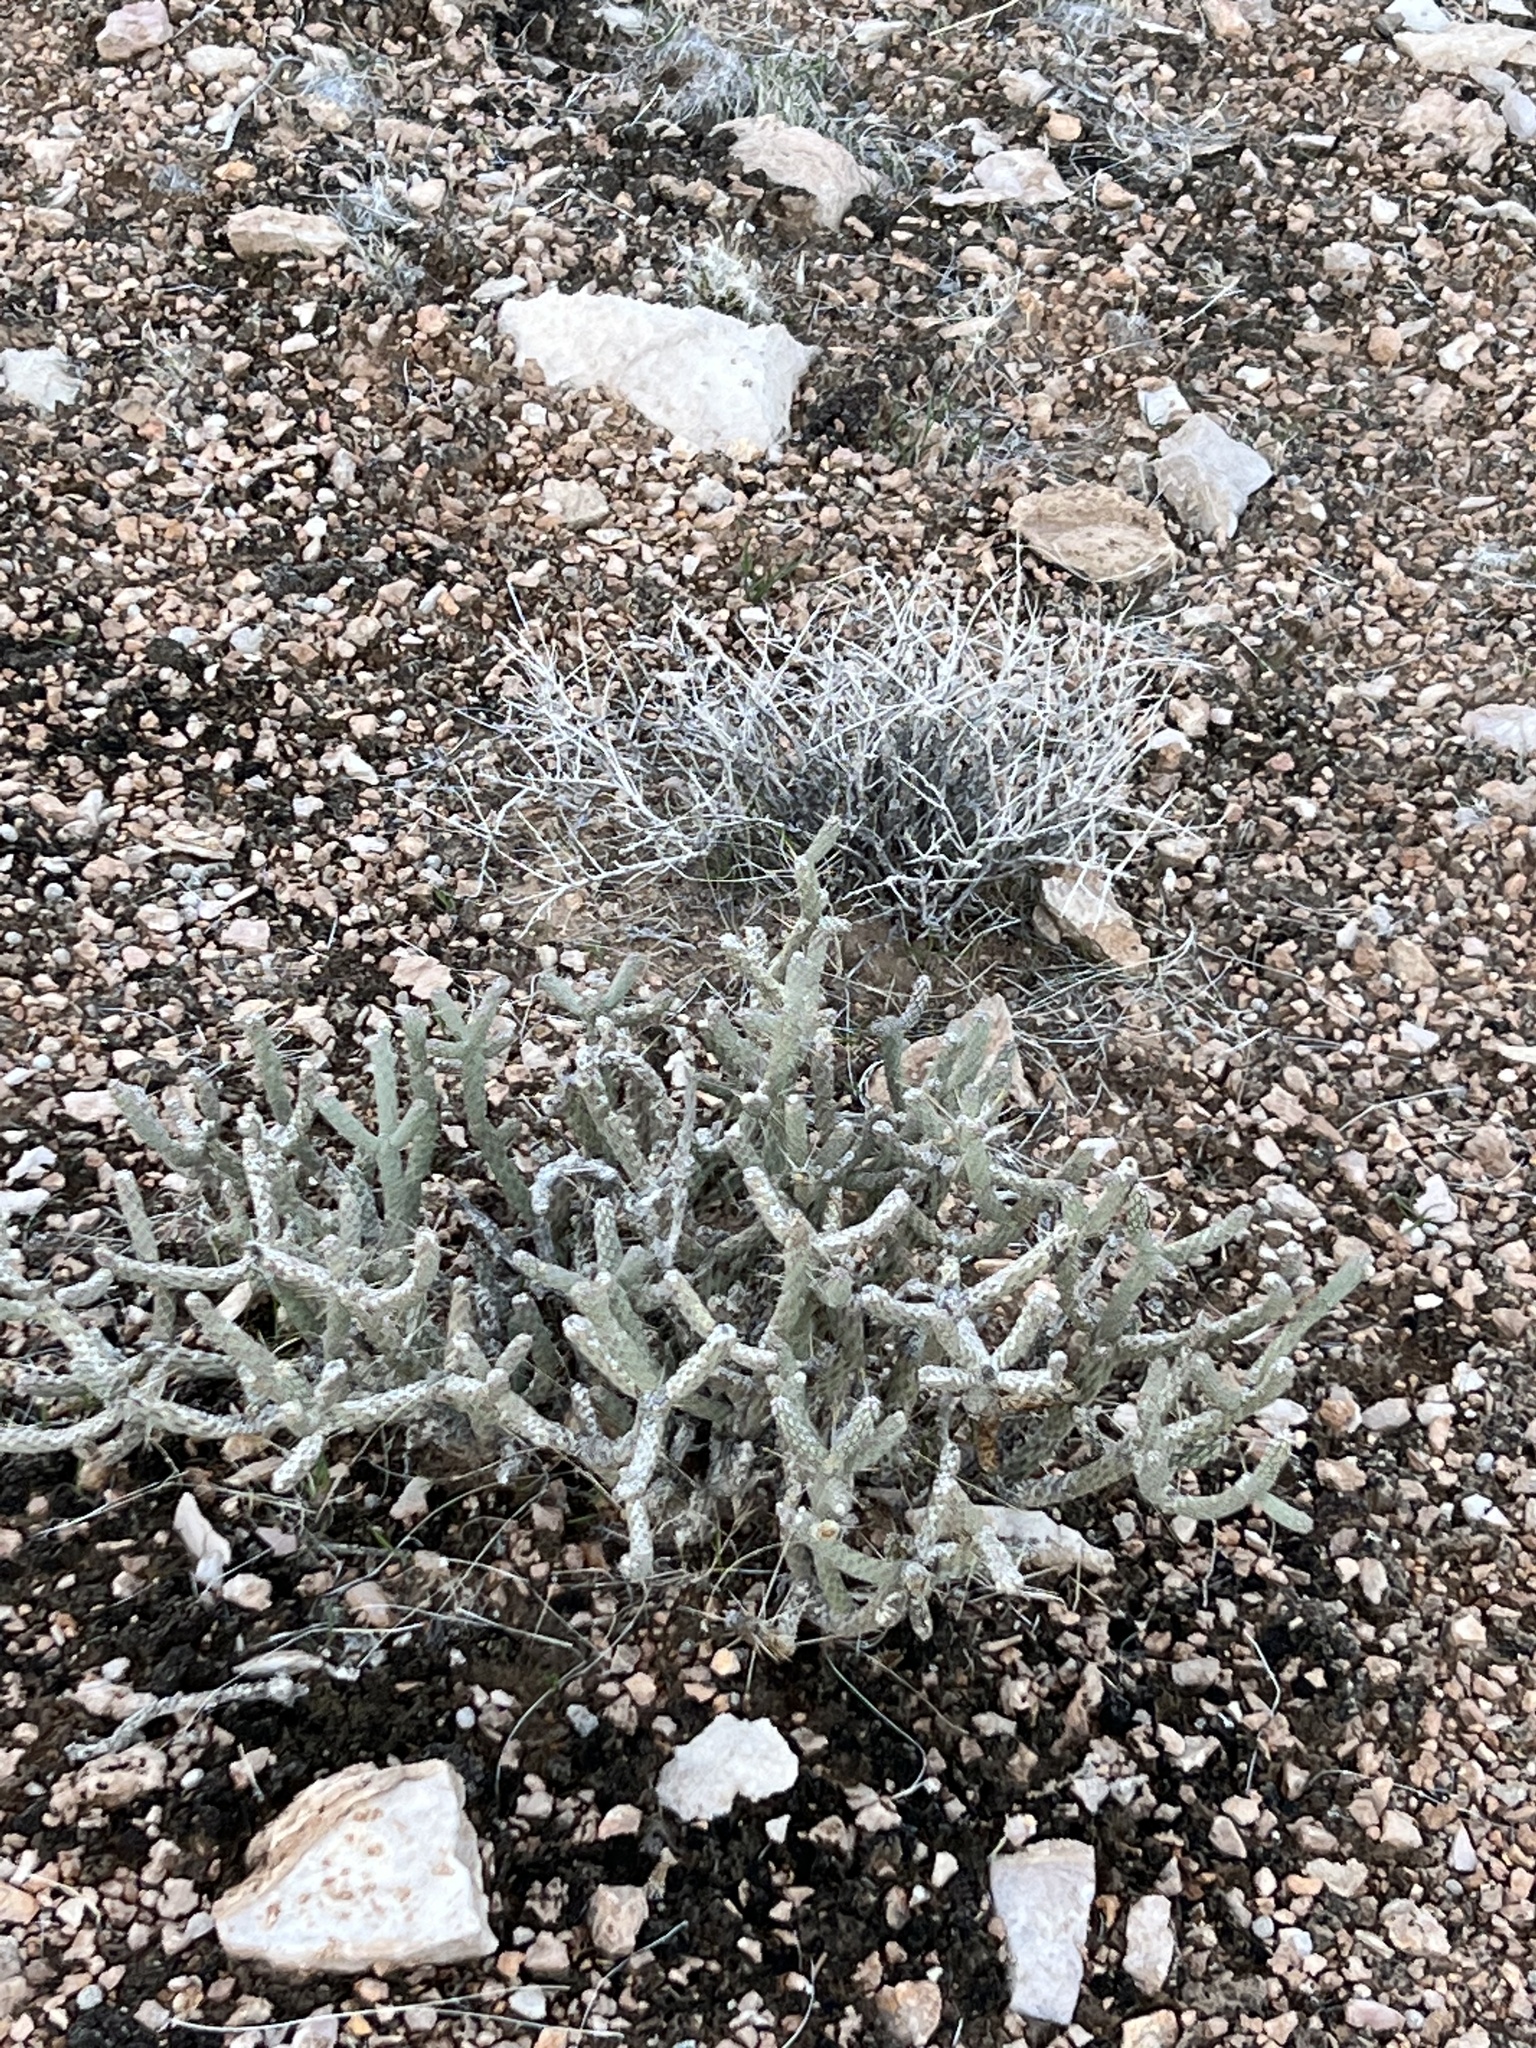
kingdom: Plantae
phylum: Tracheophyta
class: Magnoliopsida
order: Caryophyllales
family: Cactaceae
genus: Cylindropuntia
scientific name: Cylindropuntia ramosissima
